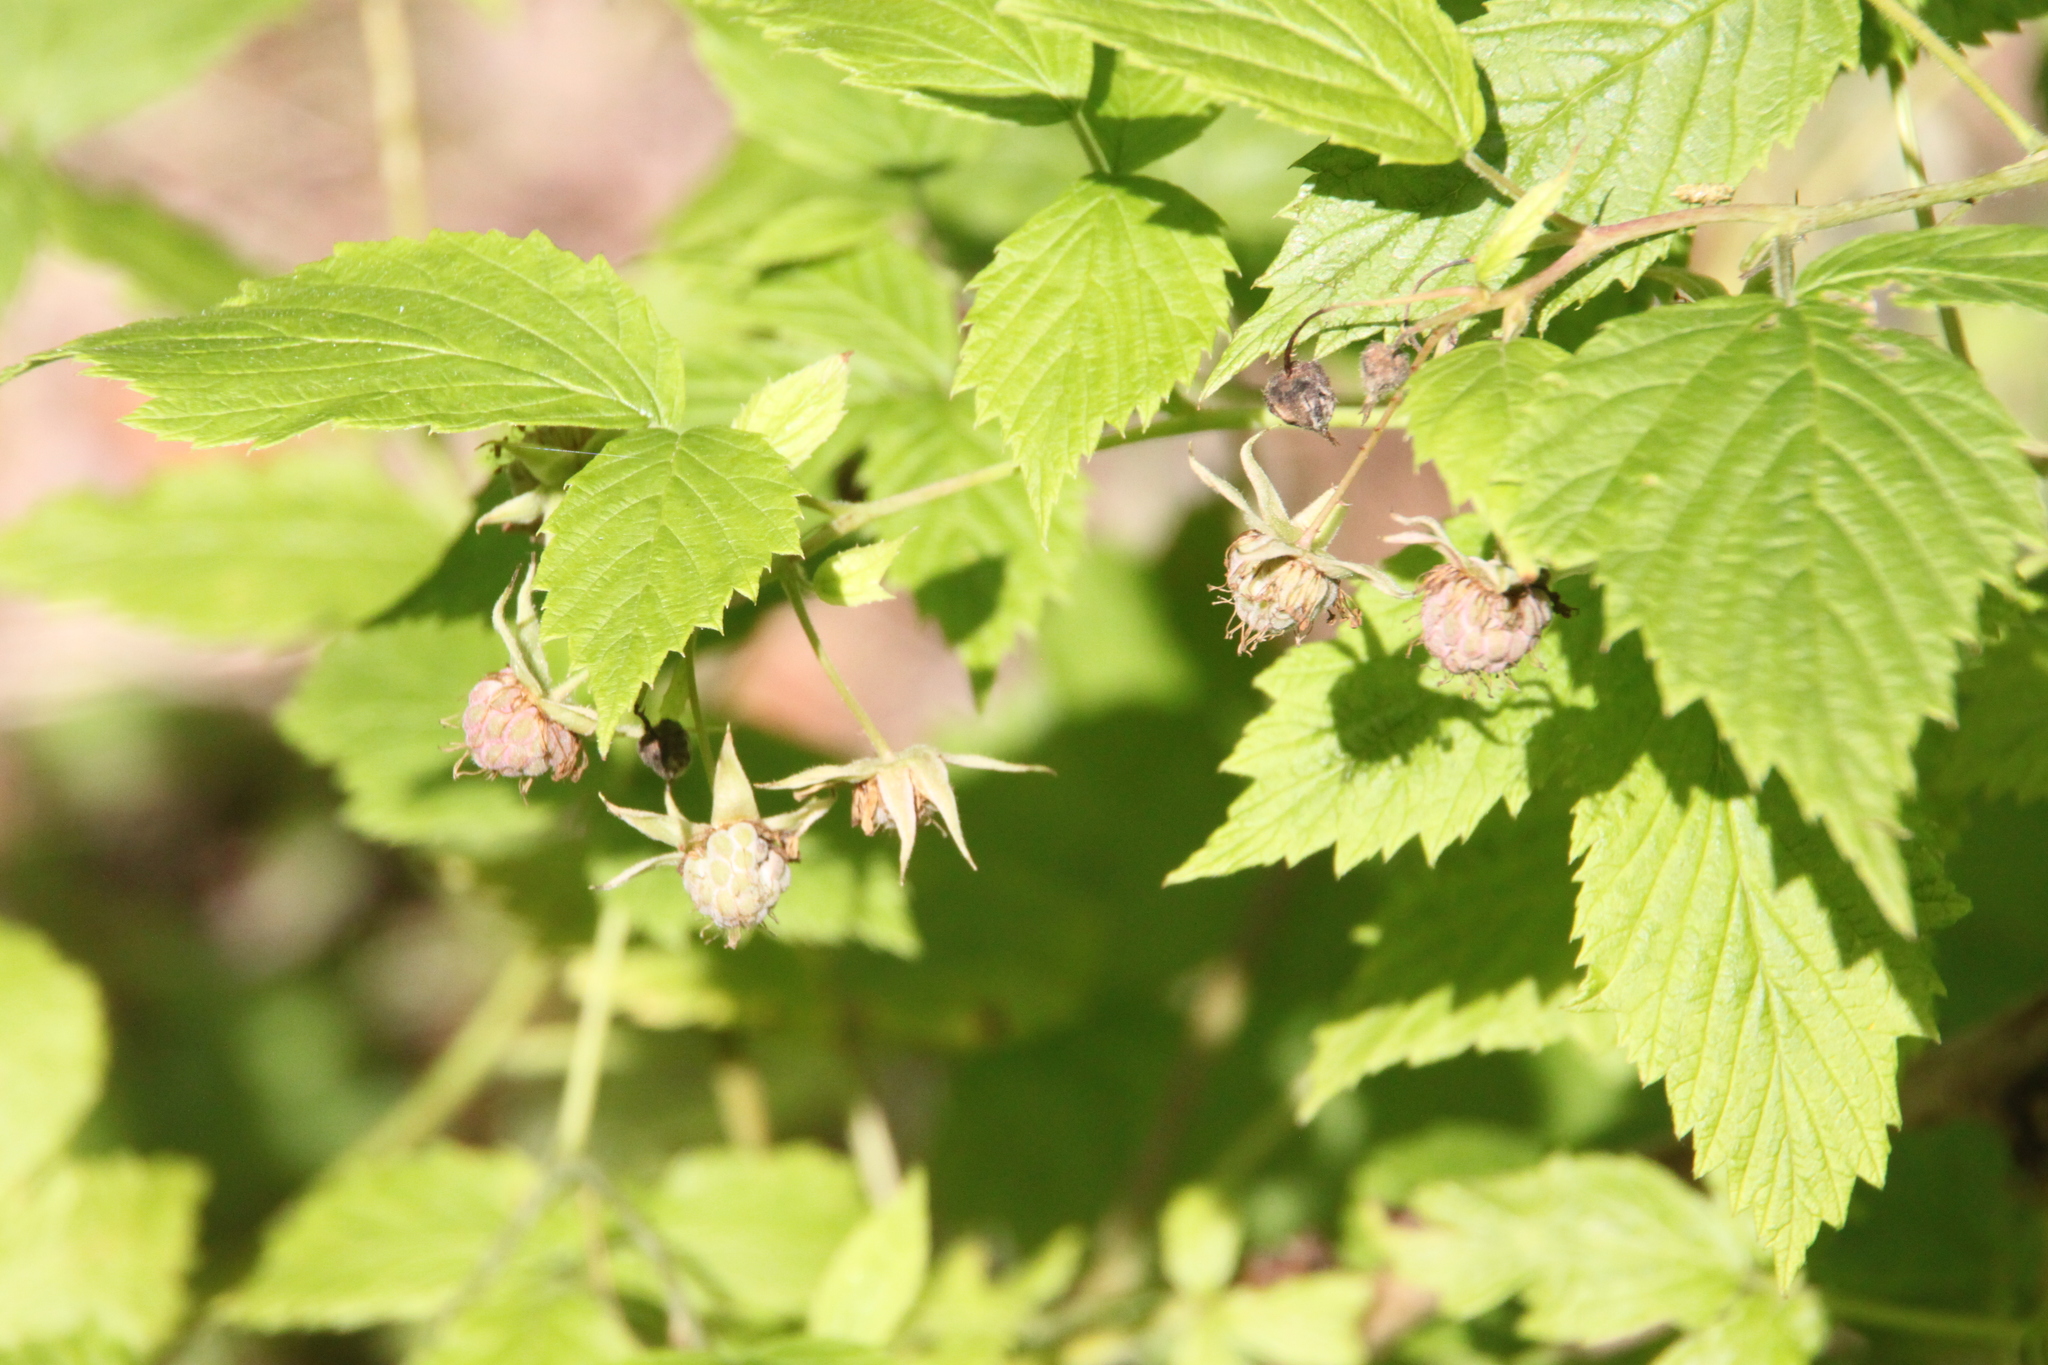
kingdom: Plantae
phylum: Tracheophyta
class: Magnoliopsida
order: Rosales
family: Rosaceae
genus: Rubus
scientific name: Rubus idaeus
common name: Raspberry
